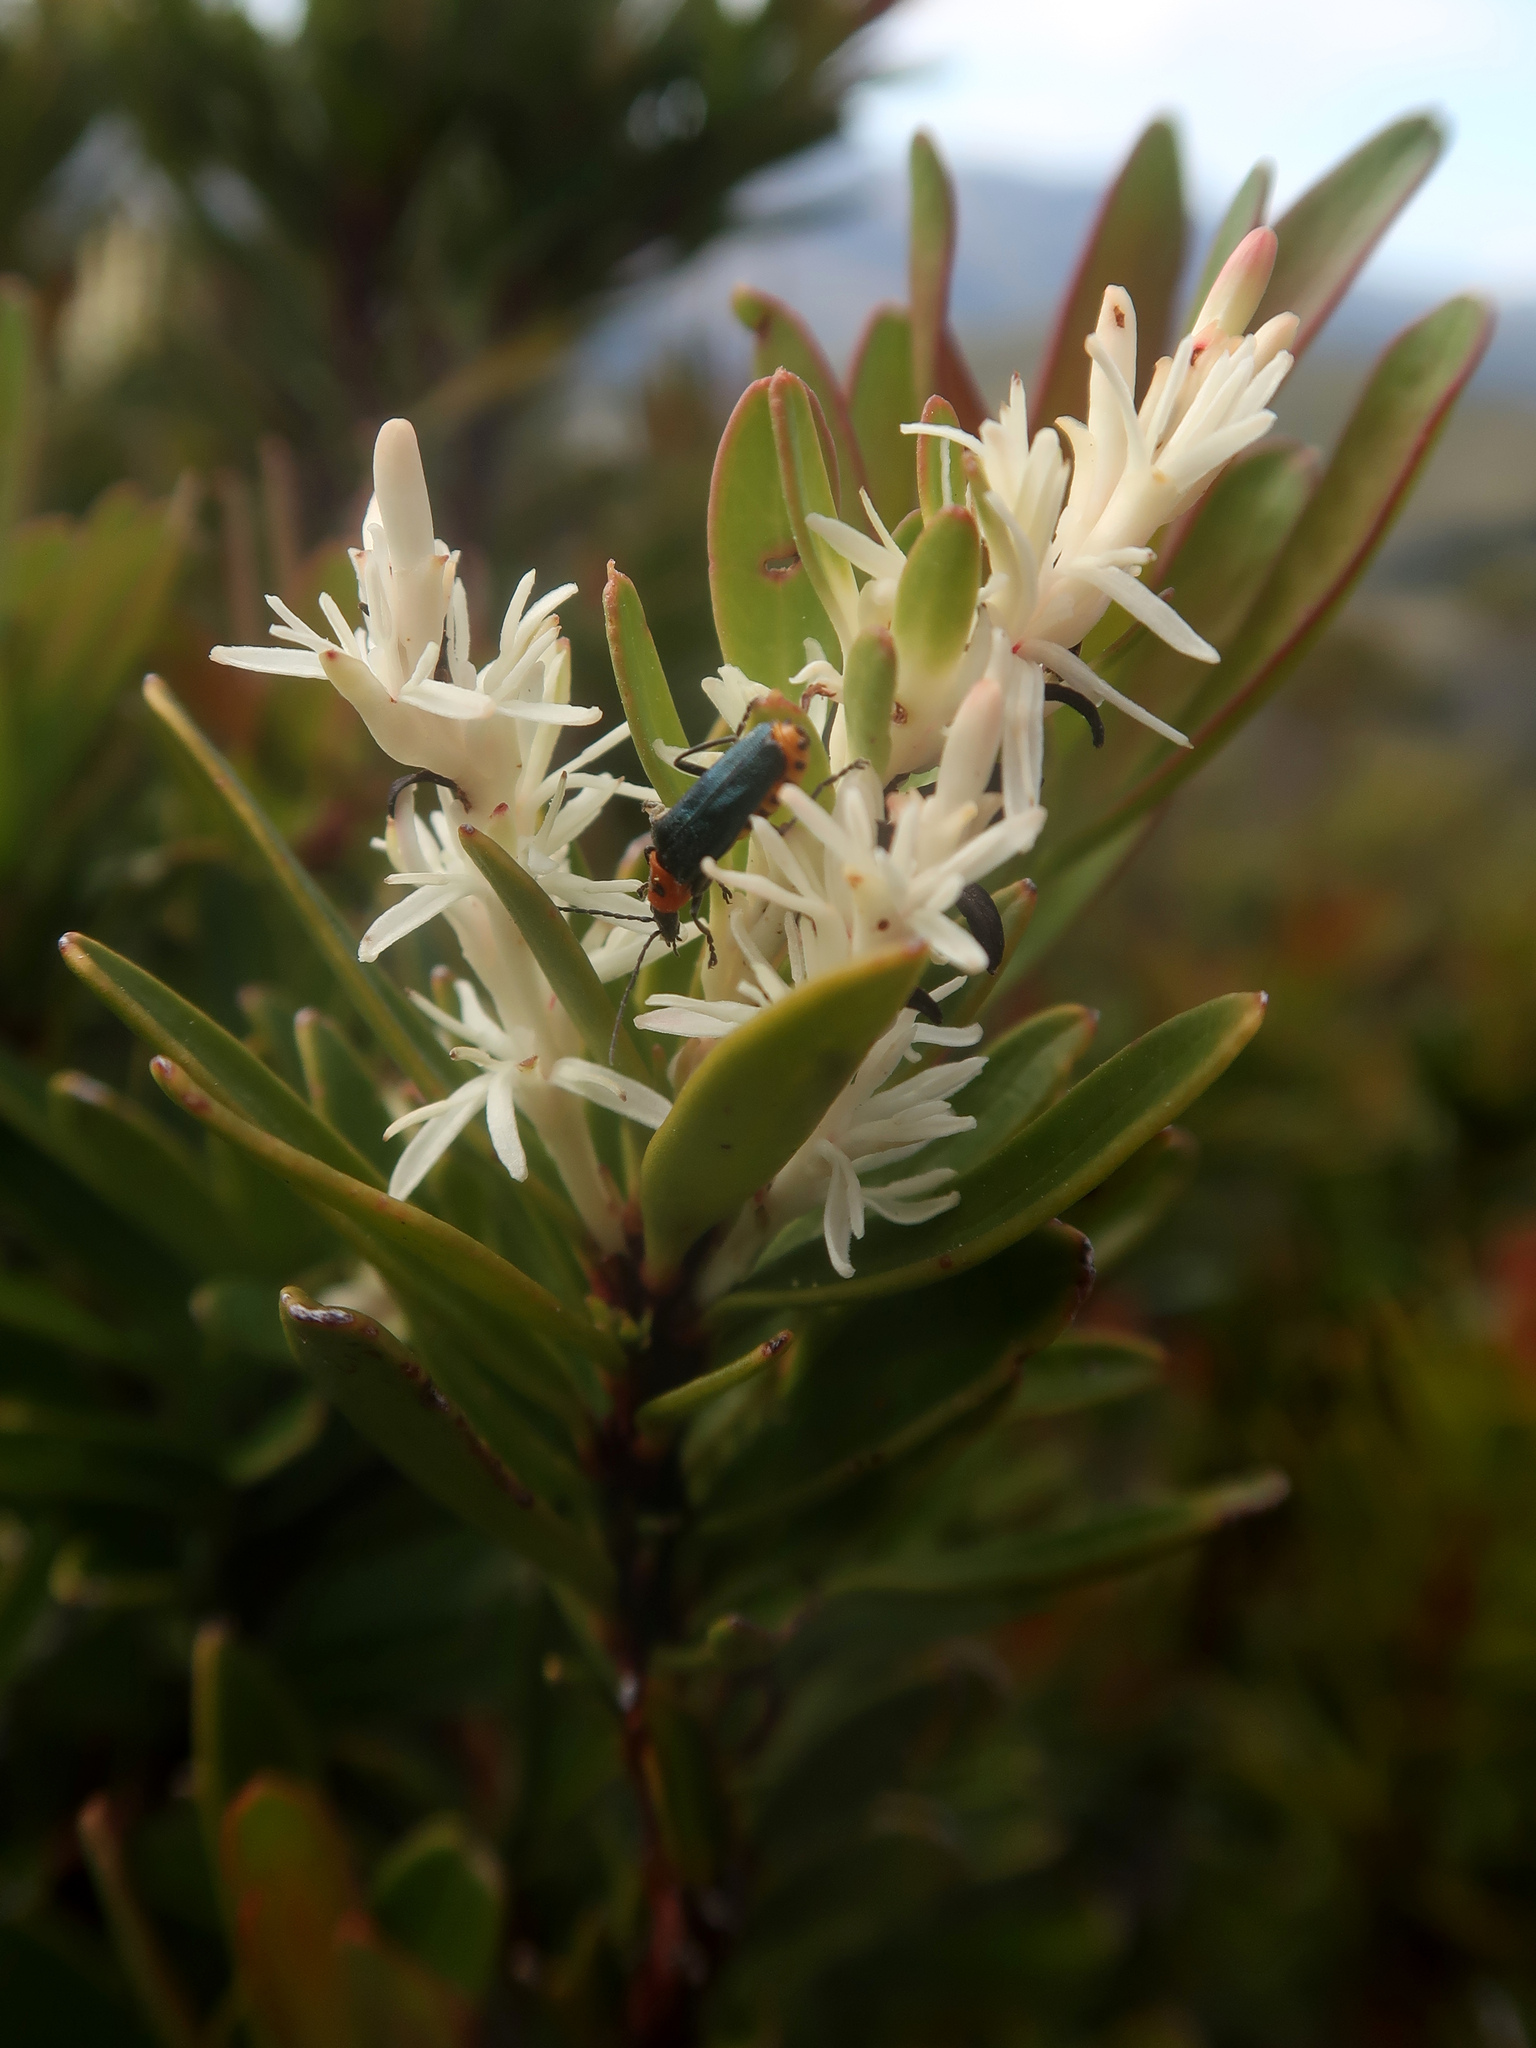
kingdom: Plantae
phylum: Tracheophyta
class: Magnoliopsida
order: Proteales
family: Proteaceae
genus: Agastachys
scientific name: Agastachys odorata
